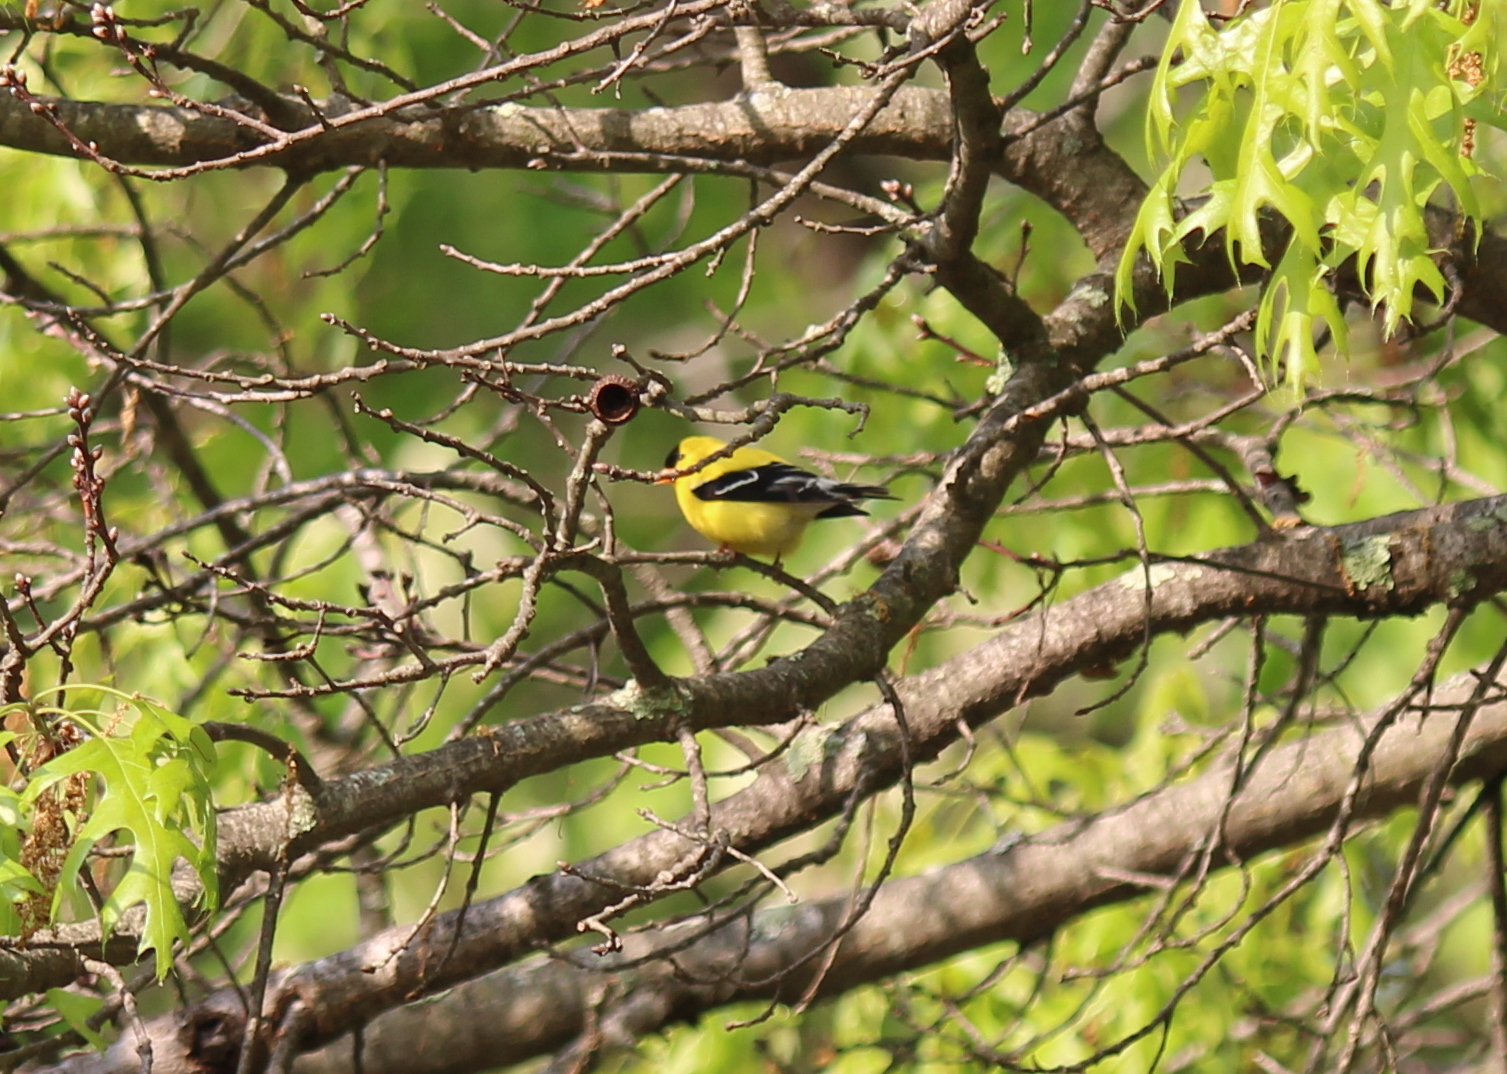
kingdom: Animalia
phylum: Chordata
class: Aves
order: Passeriformes
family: Fringillidae
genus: Spinus
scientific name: Spinus tristis
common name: American goldfinch
